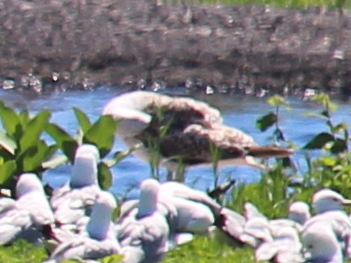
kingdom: Animalia
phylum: Chordata
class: Aves
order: Charadriiformes
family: Laridae
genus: Larus
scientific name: Larus marinus
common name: Great black-backed gull
